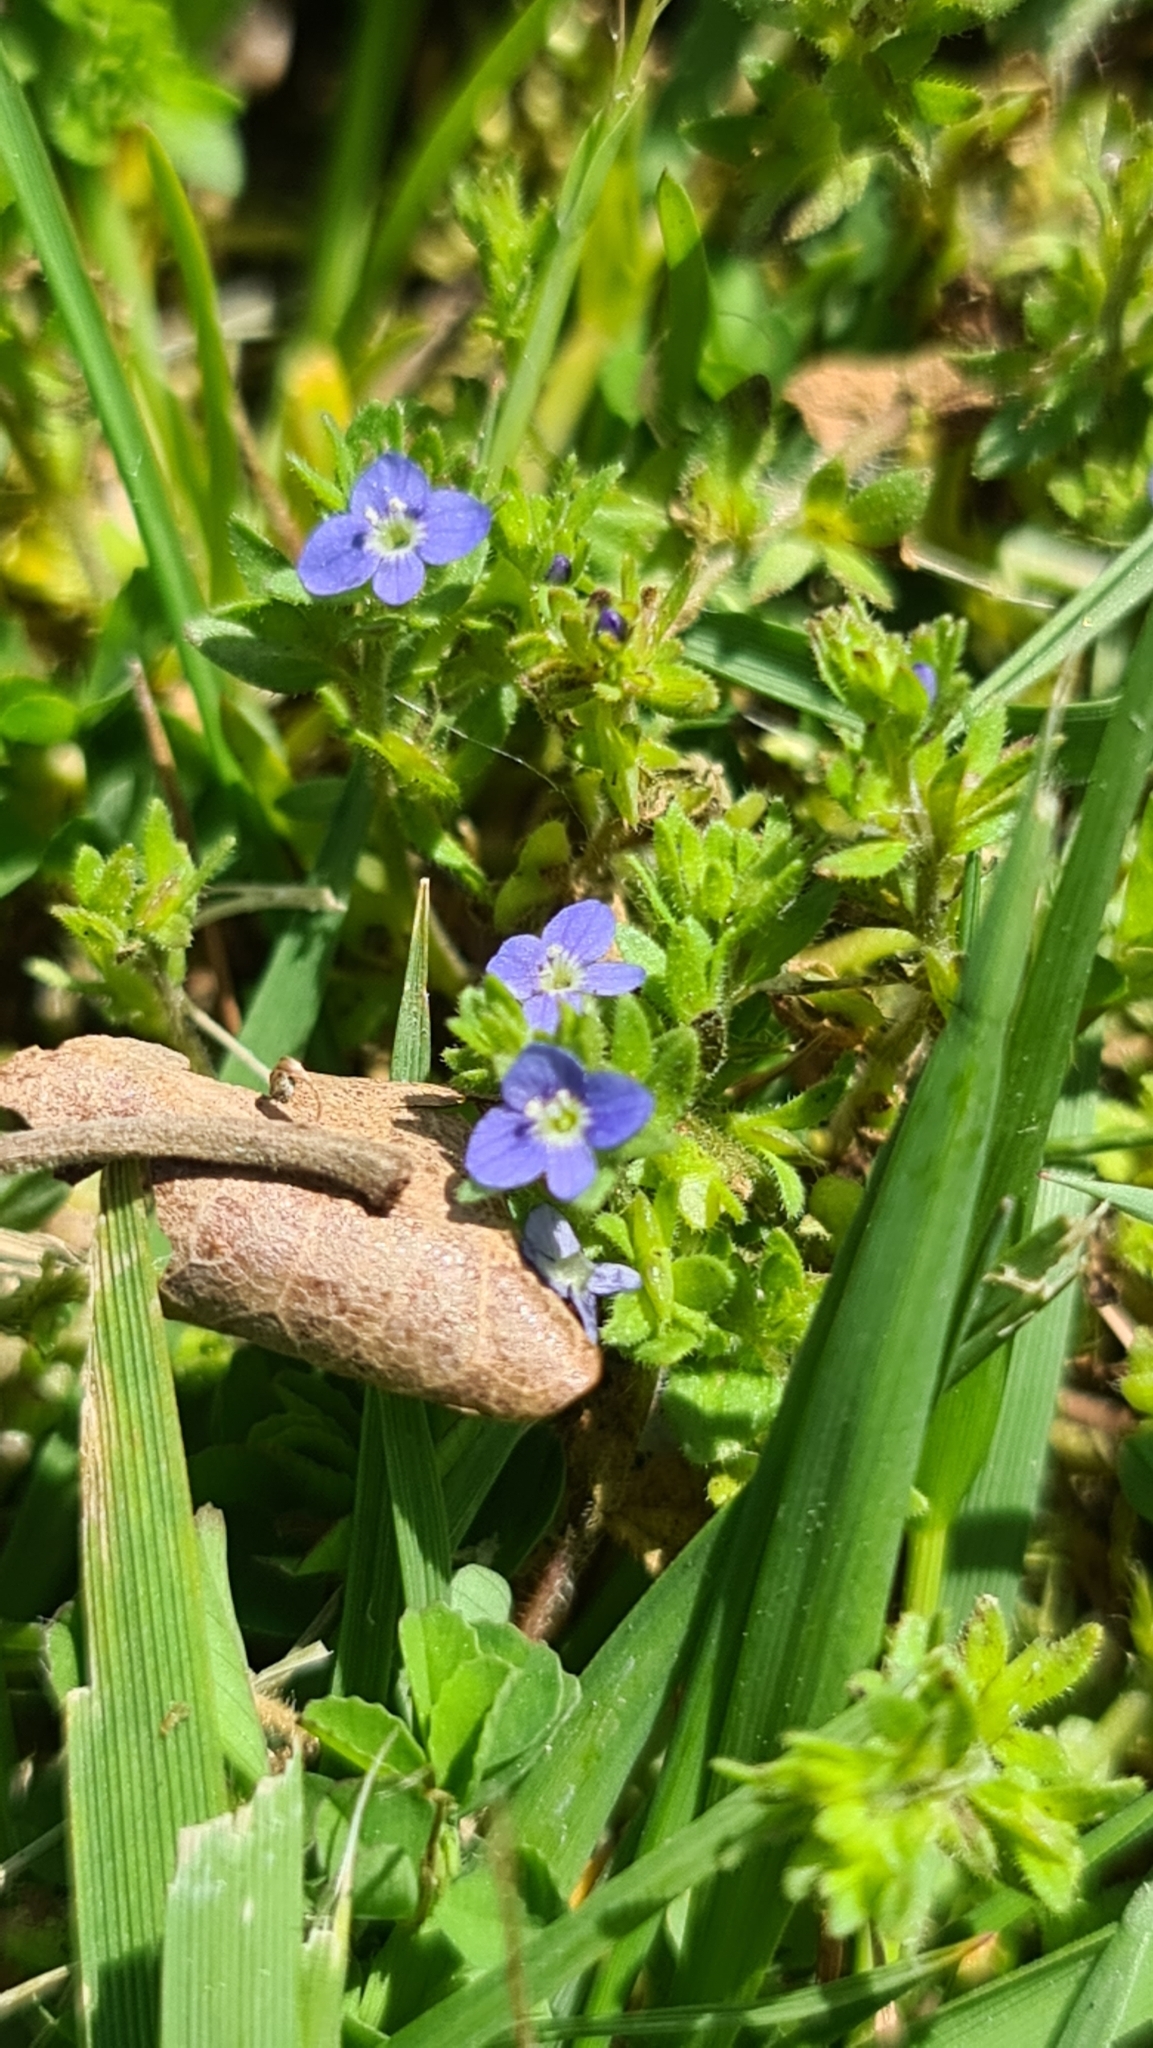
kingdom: Plantae
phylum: Tracheophyta
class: Magnoliopsida
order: Lamiales
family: Plantaginaceae
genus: Veronica
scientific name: Veronica arvensis
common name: Corn speedwell
